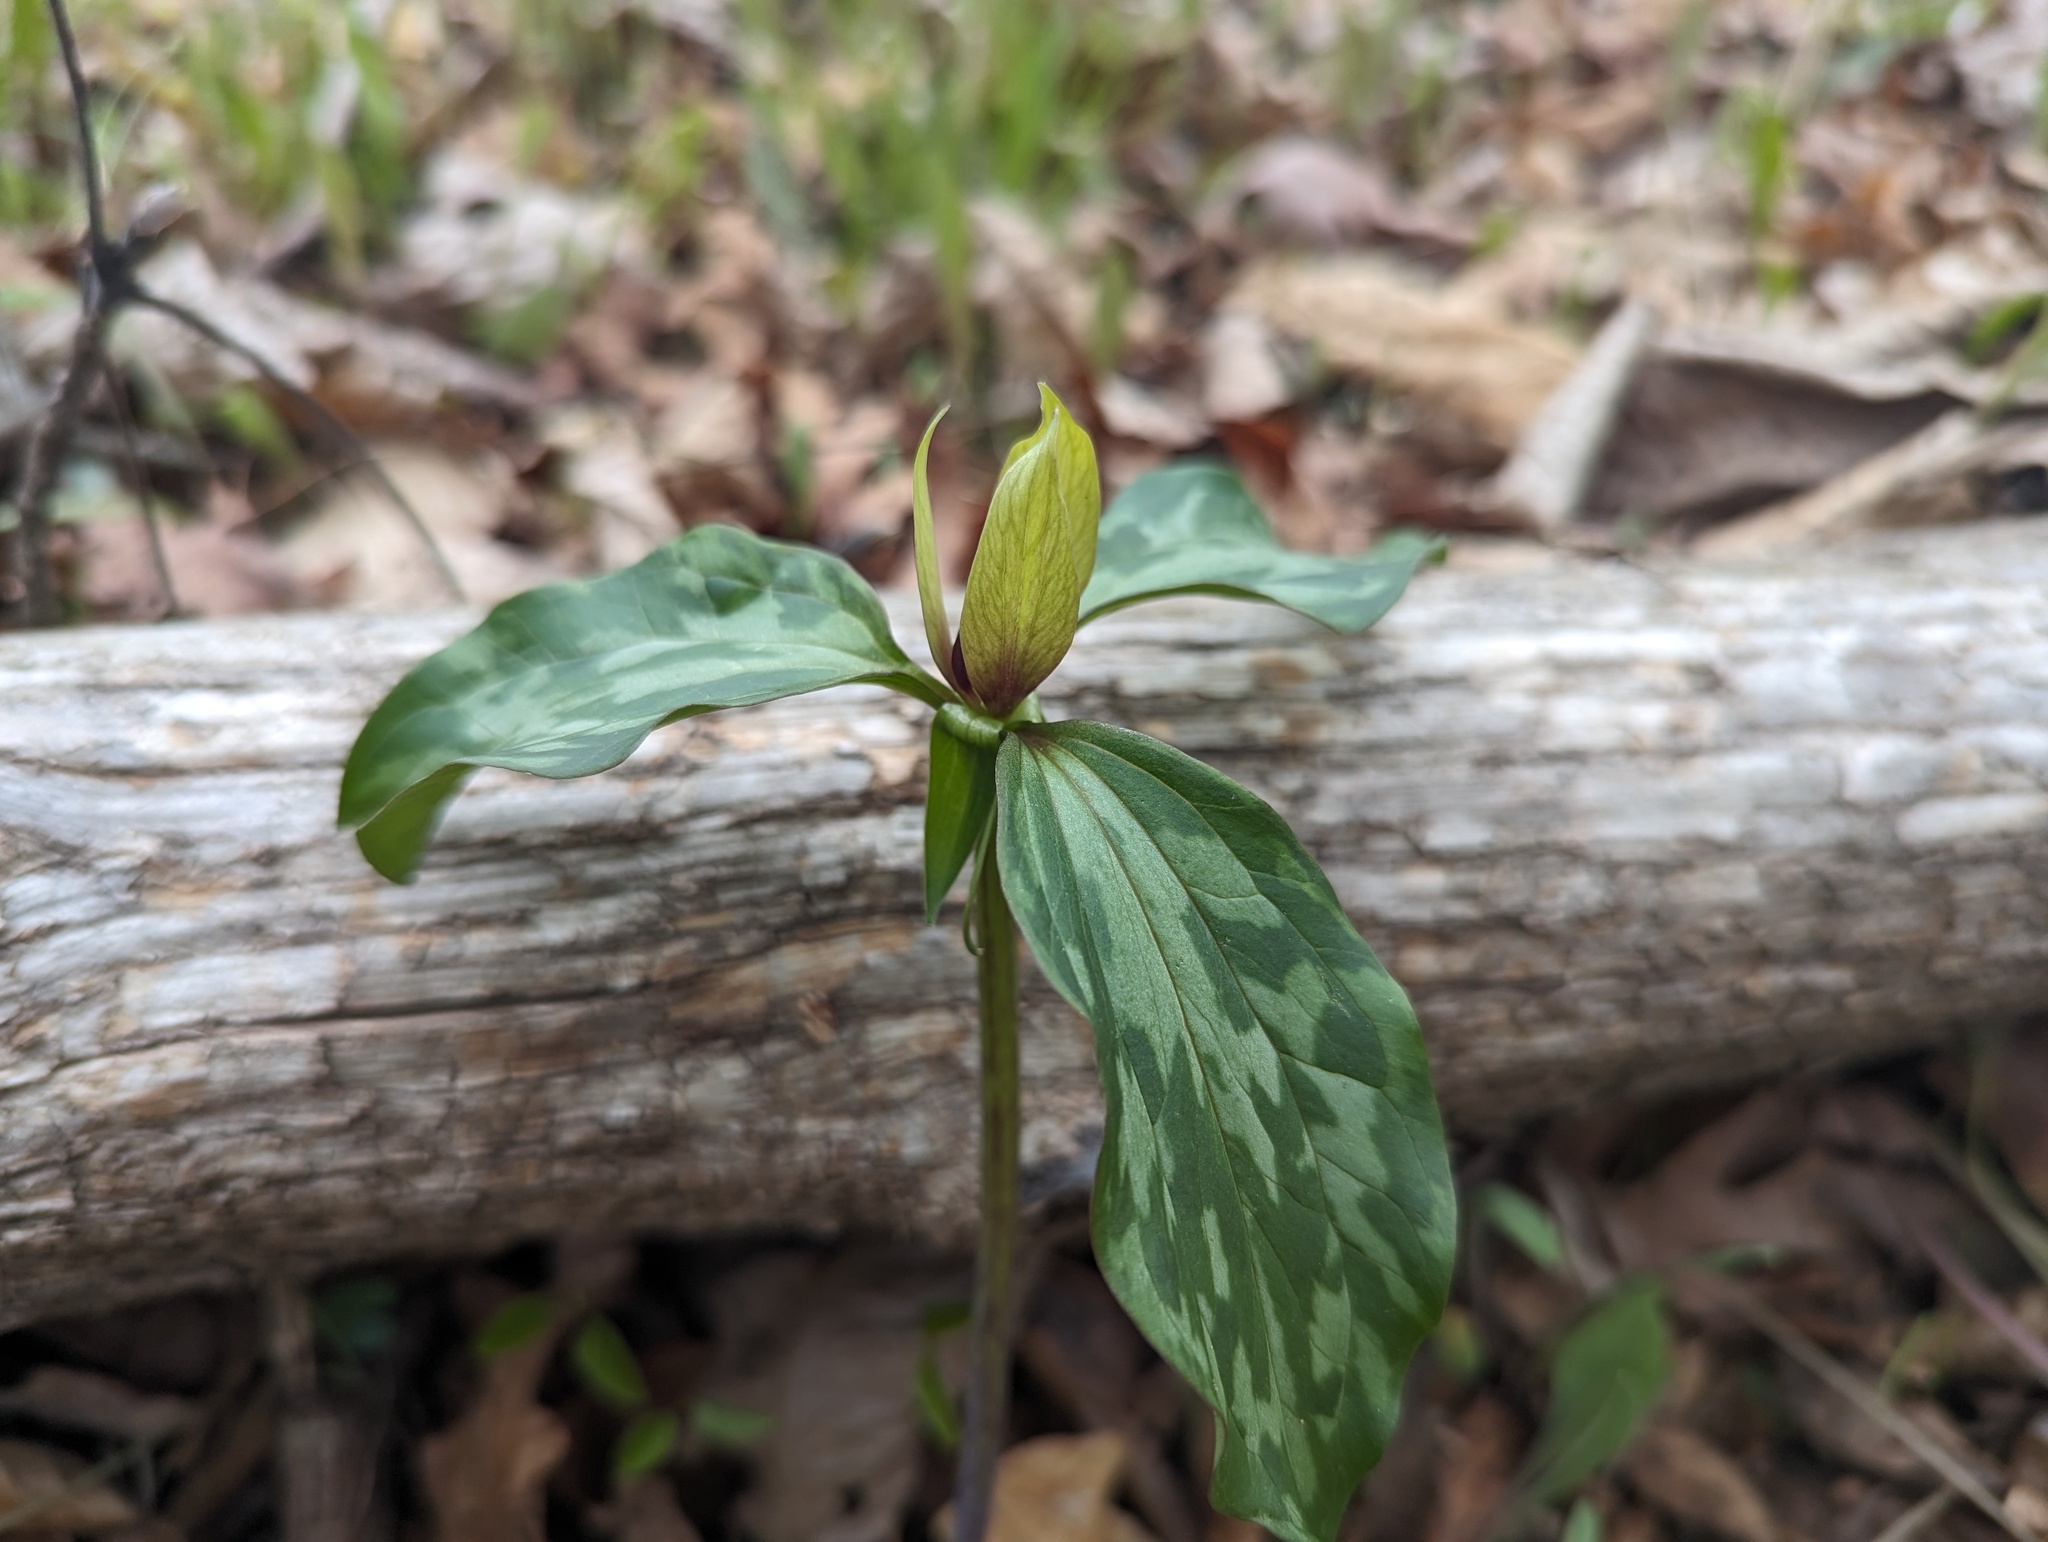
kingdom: Plantae
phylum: Tracheophyta
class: Liliopsida
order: Liliales
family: Melanthiaceae
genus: Trillium
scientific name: Trillium recurvatum
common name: Bloody butcher
